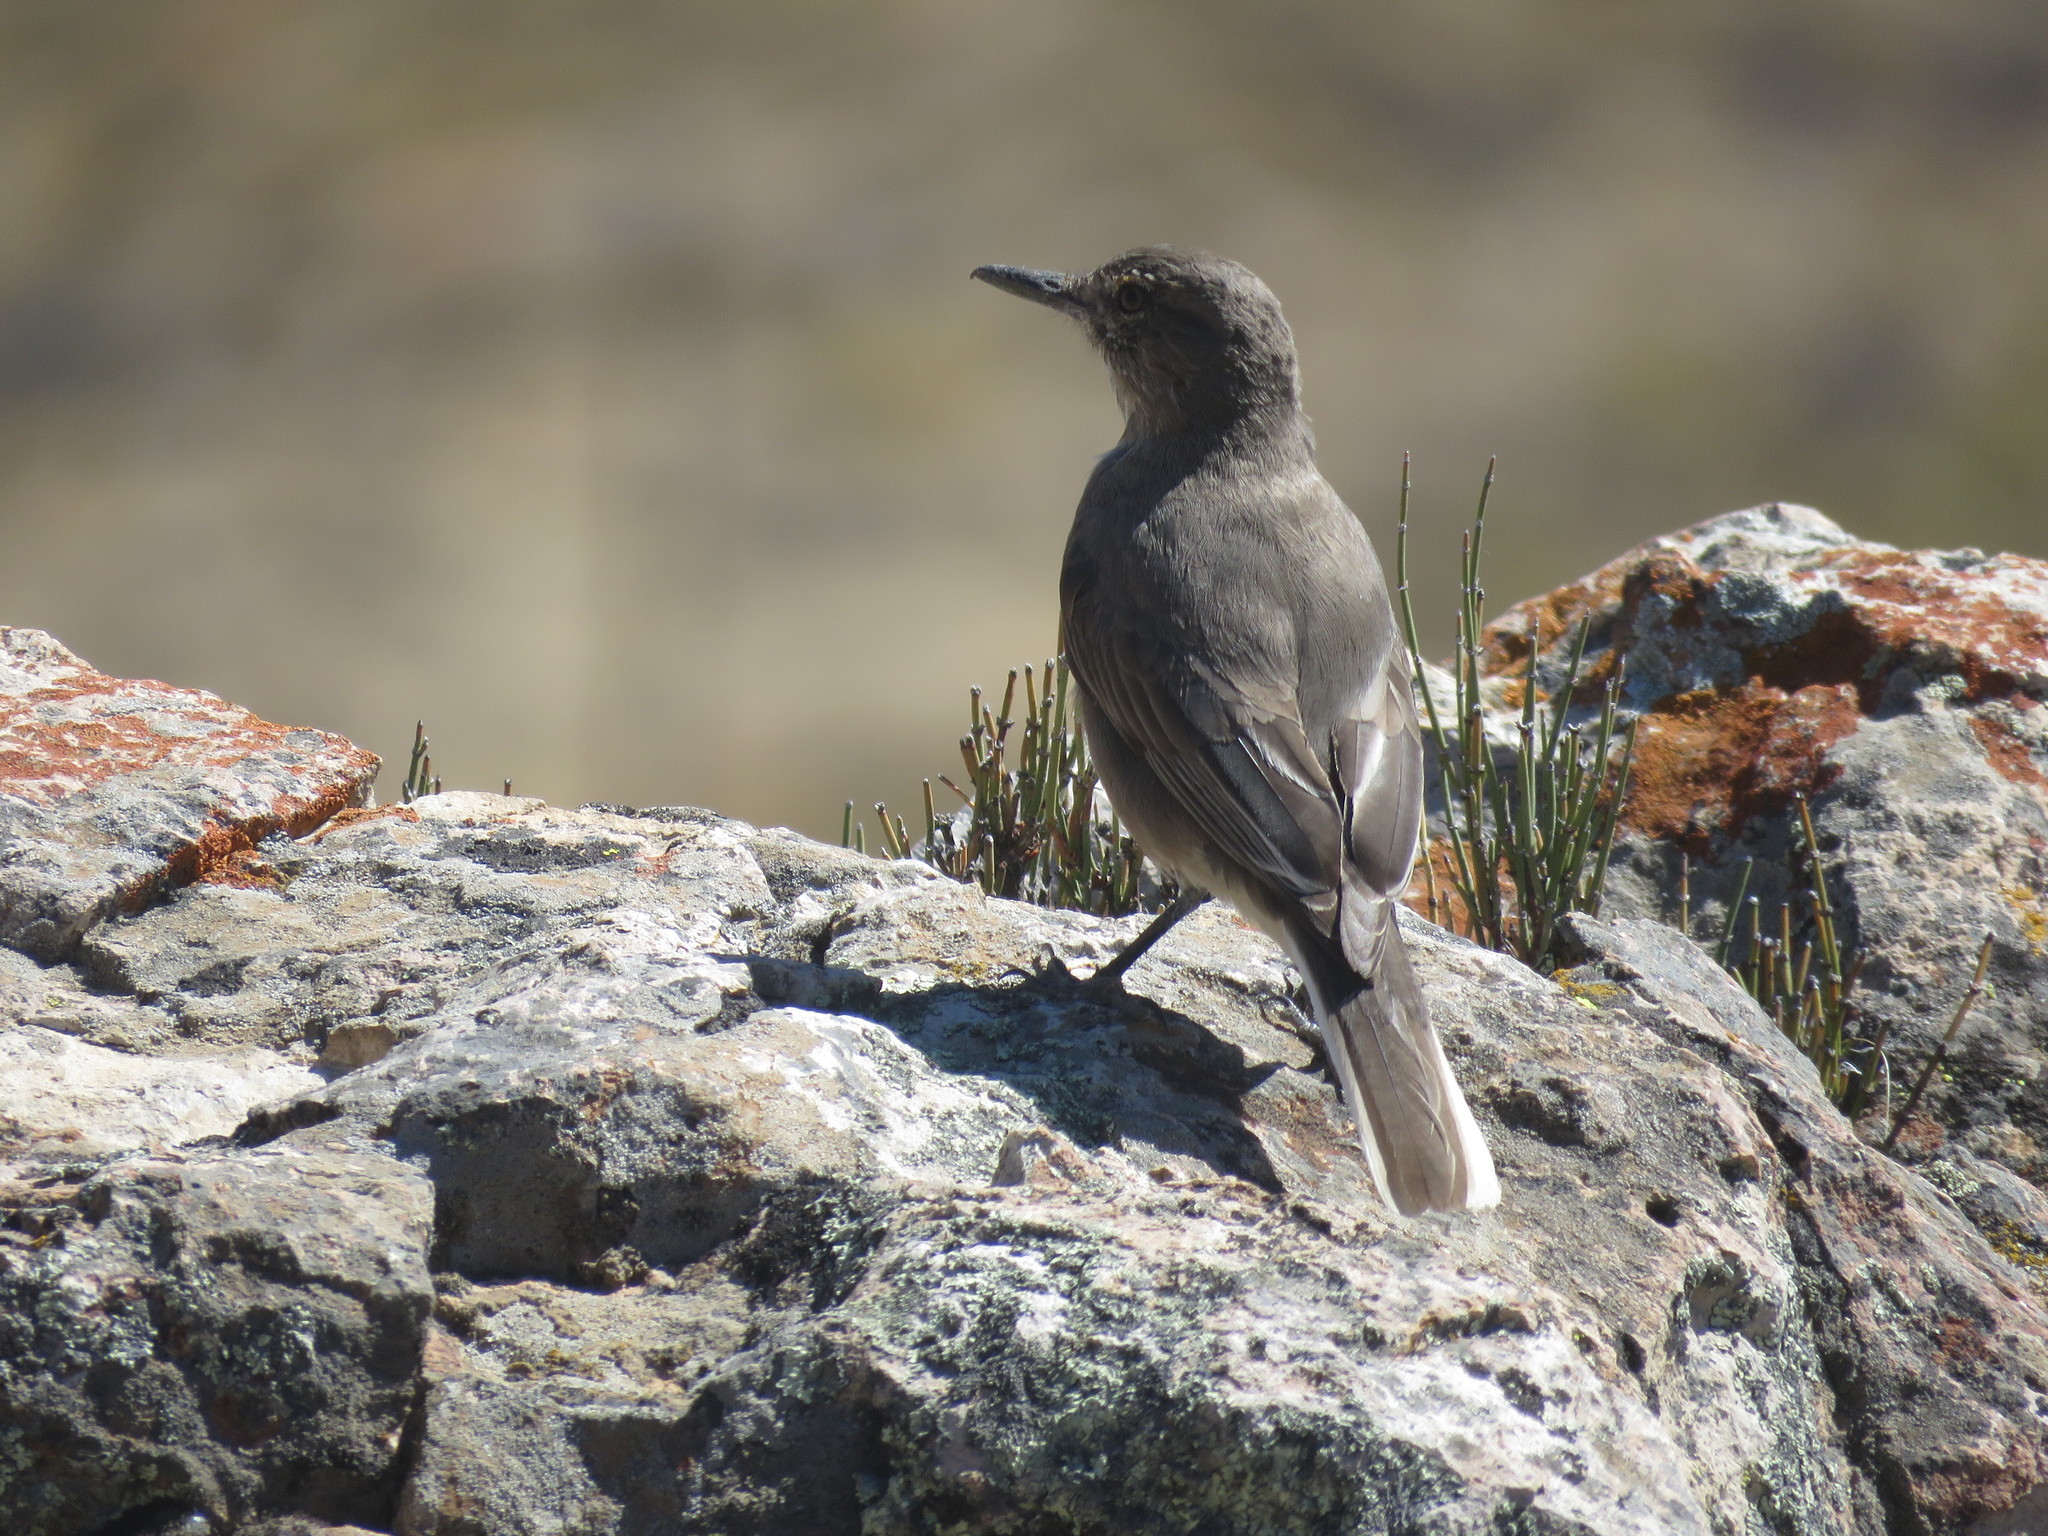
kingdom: Animalia
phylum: Chordata
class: Aves
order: Passeriformes
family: Tyrannidae
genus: Agriornis
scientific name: Agriornis montanus
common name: Black-billed shrike-tyrant
